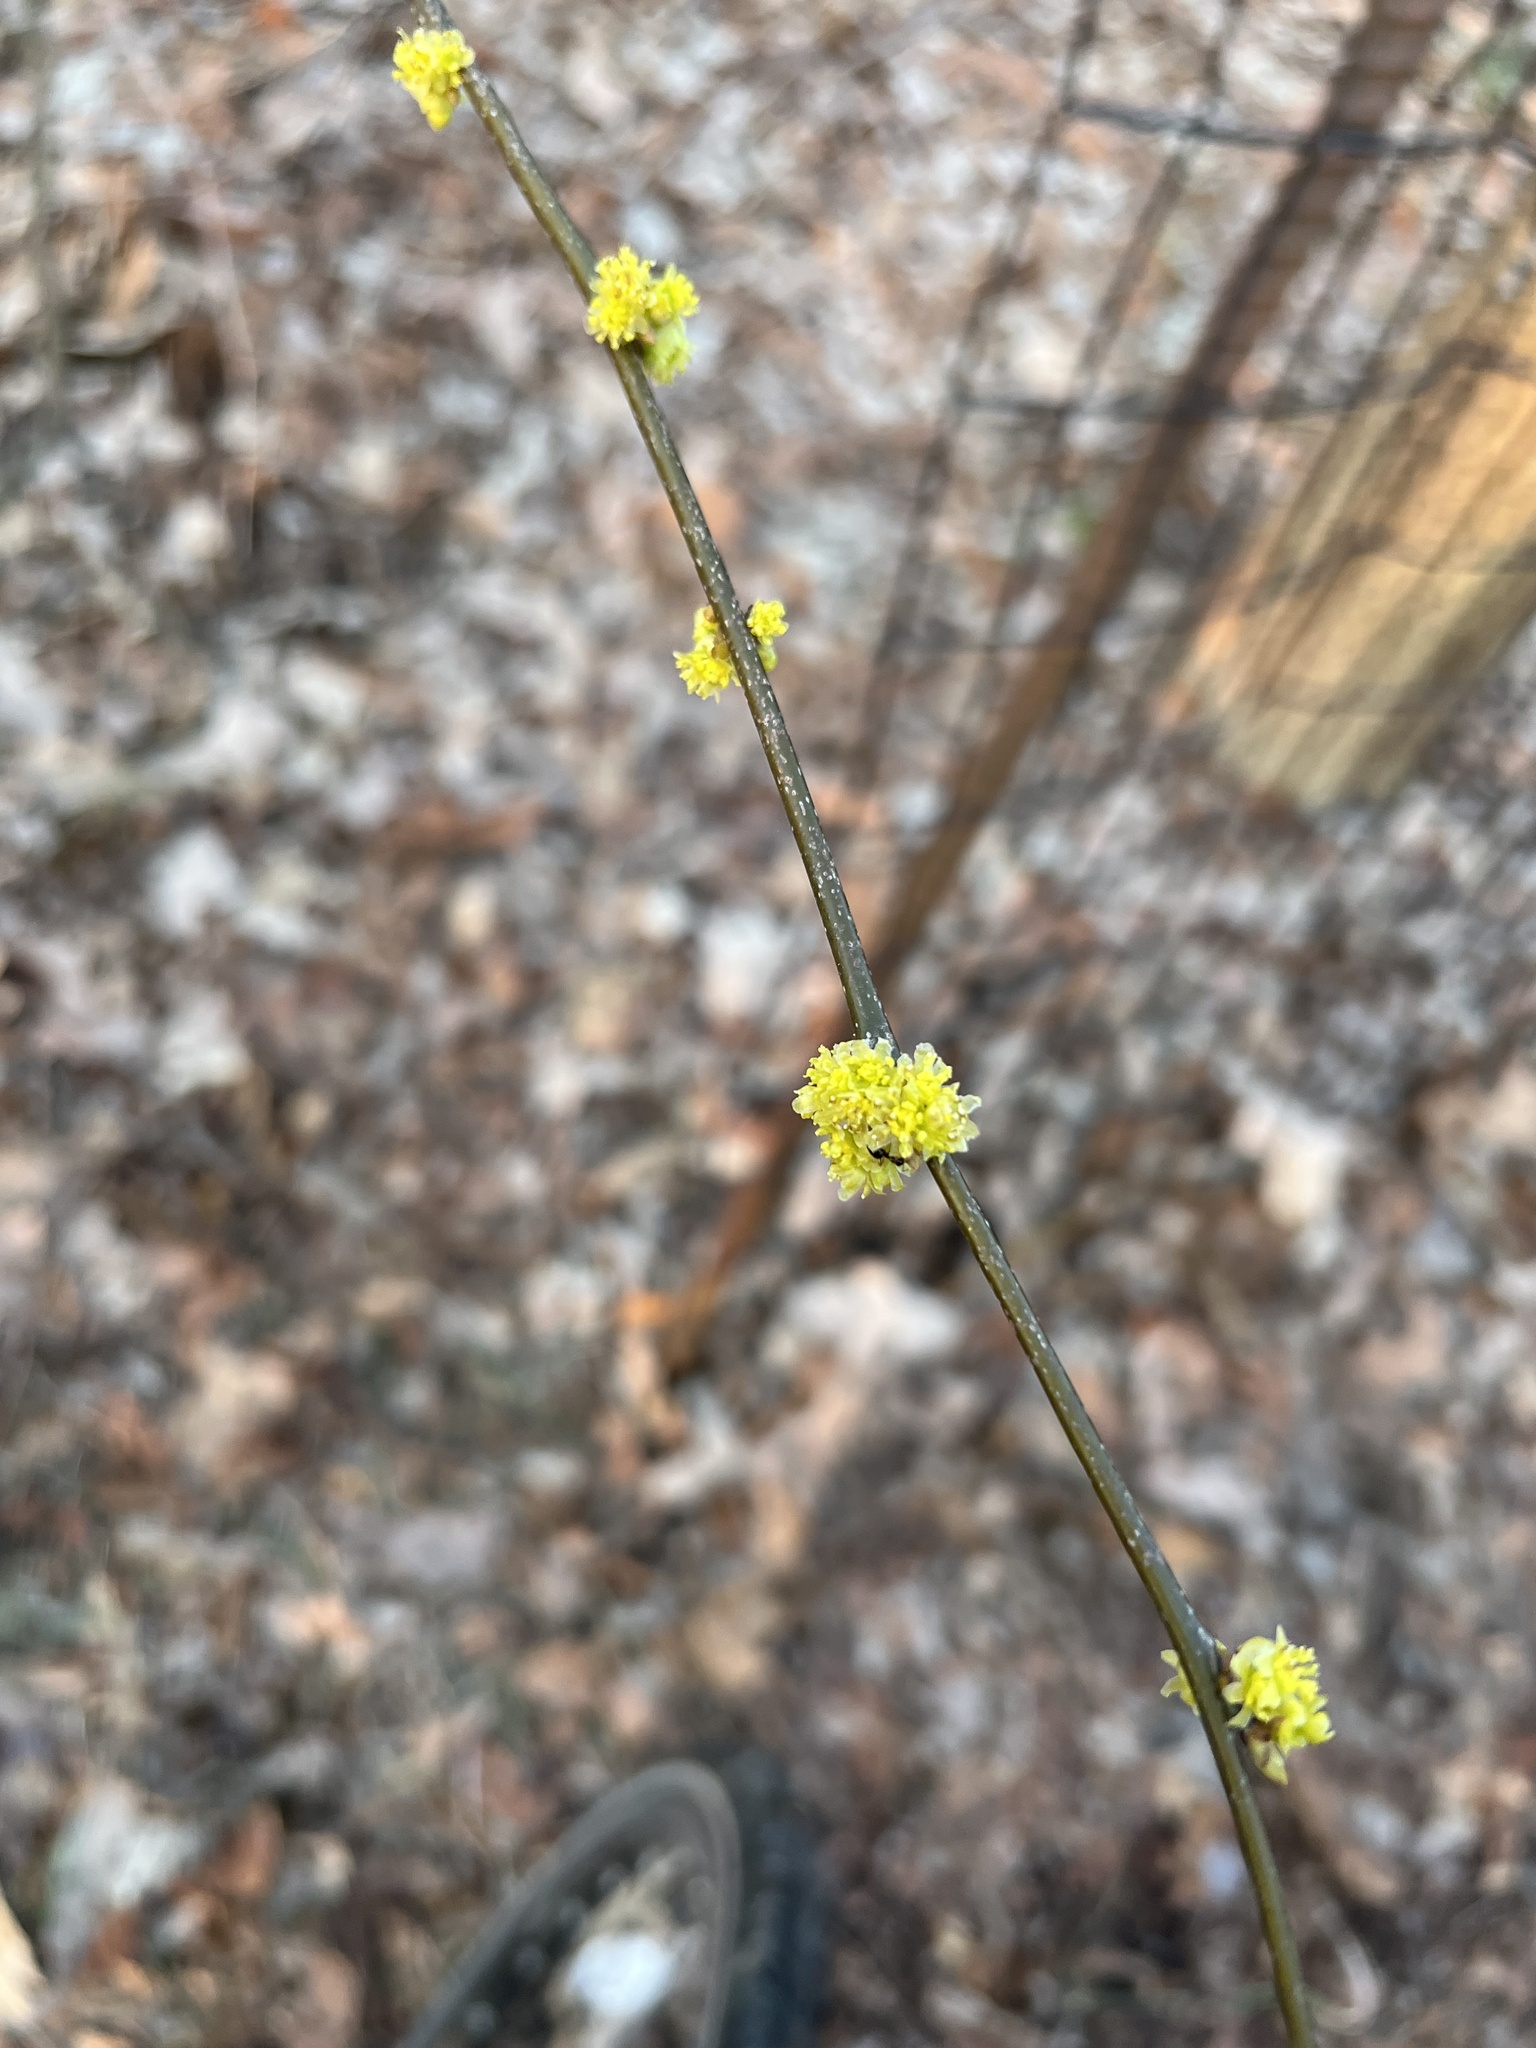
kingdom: Plantae
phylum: Tracheophyta
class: Magnoliopsida
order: Laurales
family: Lauraceae
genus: Lindera
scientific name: Lindera benzoin
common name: Spicebush
